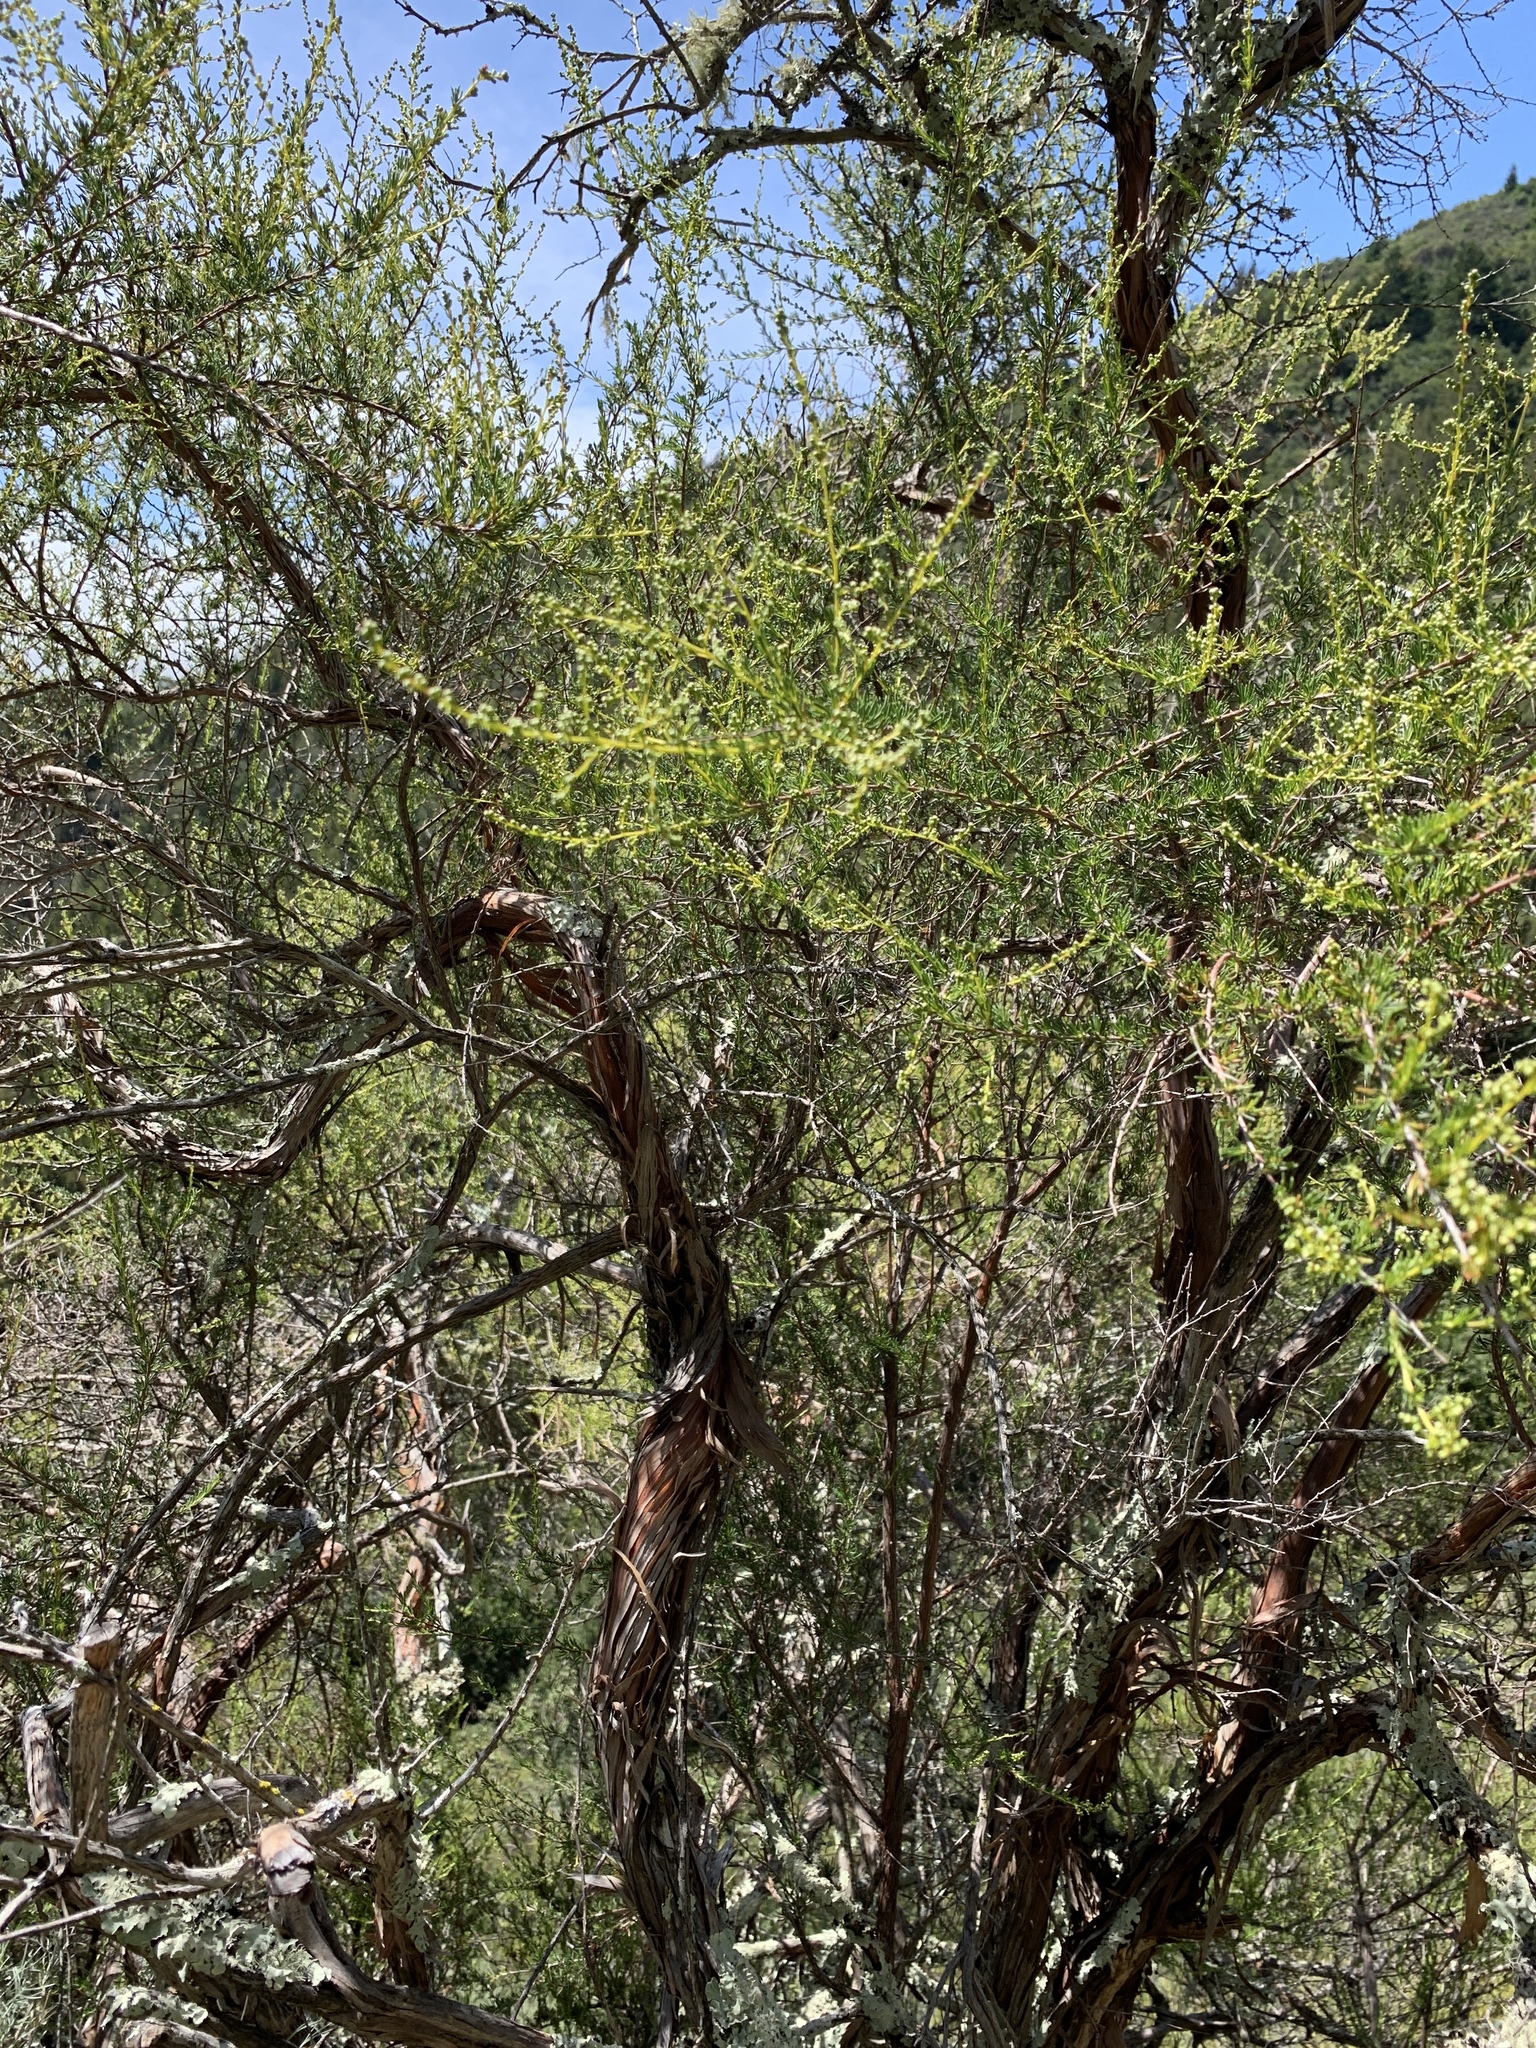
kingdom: Plantae
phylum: Tracheophyta
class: Magnoliopsida
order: Rosales
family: Rosaceae
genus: Adenostoma
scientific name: Adenostoma fasciculatum
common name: Chamise
